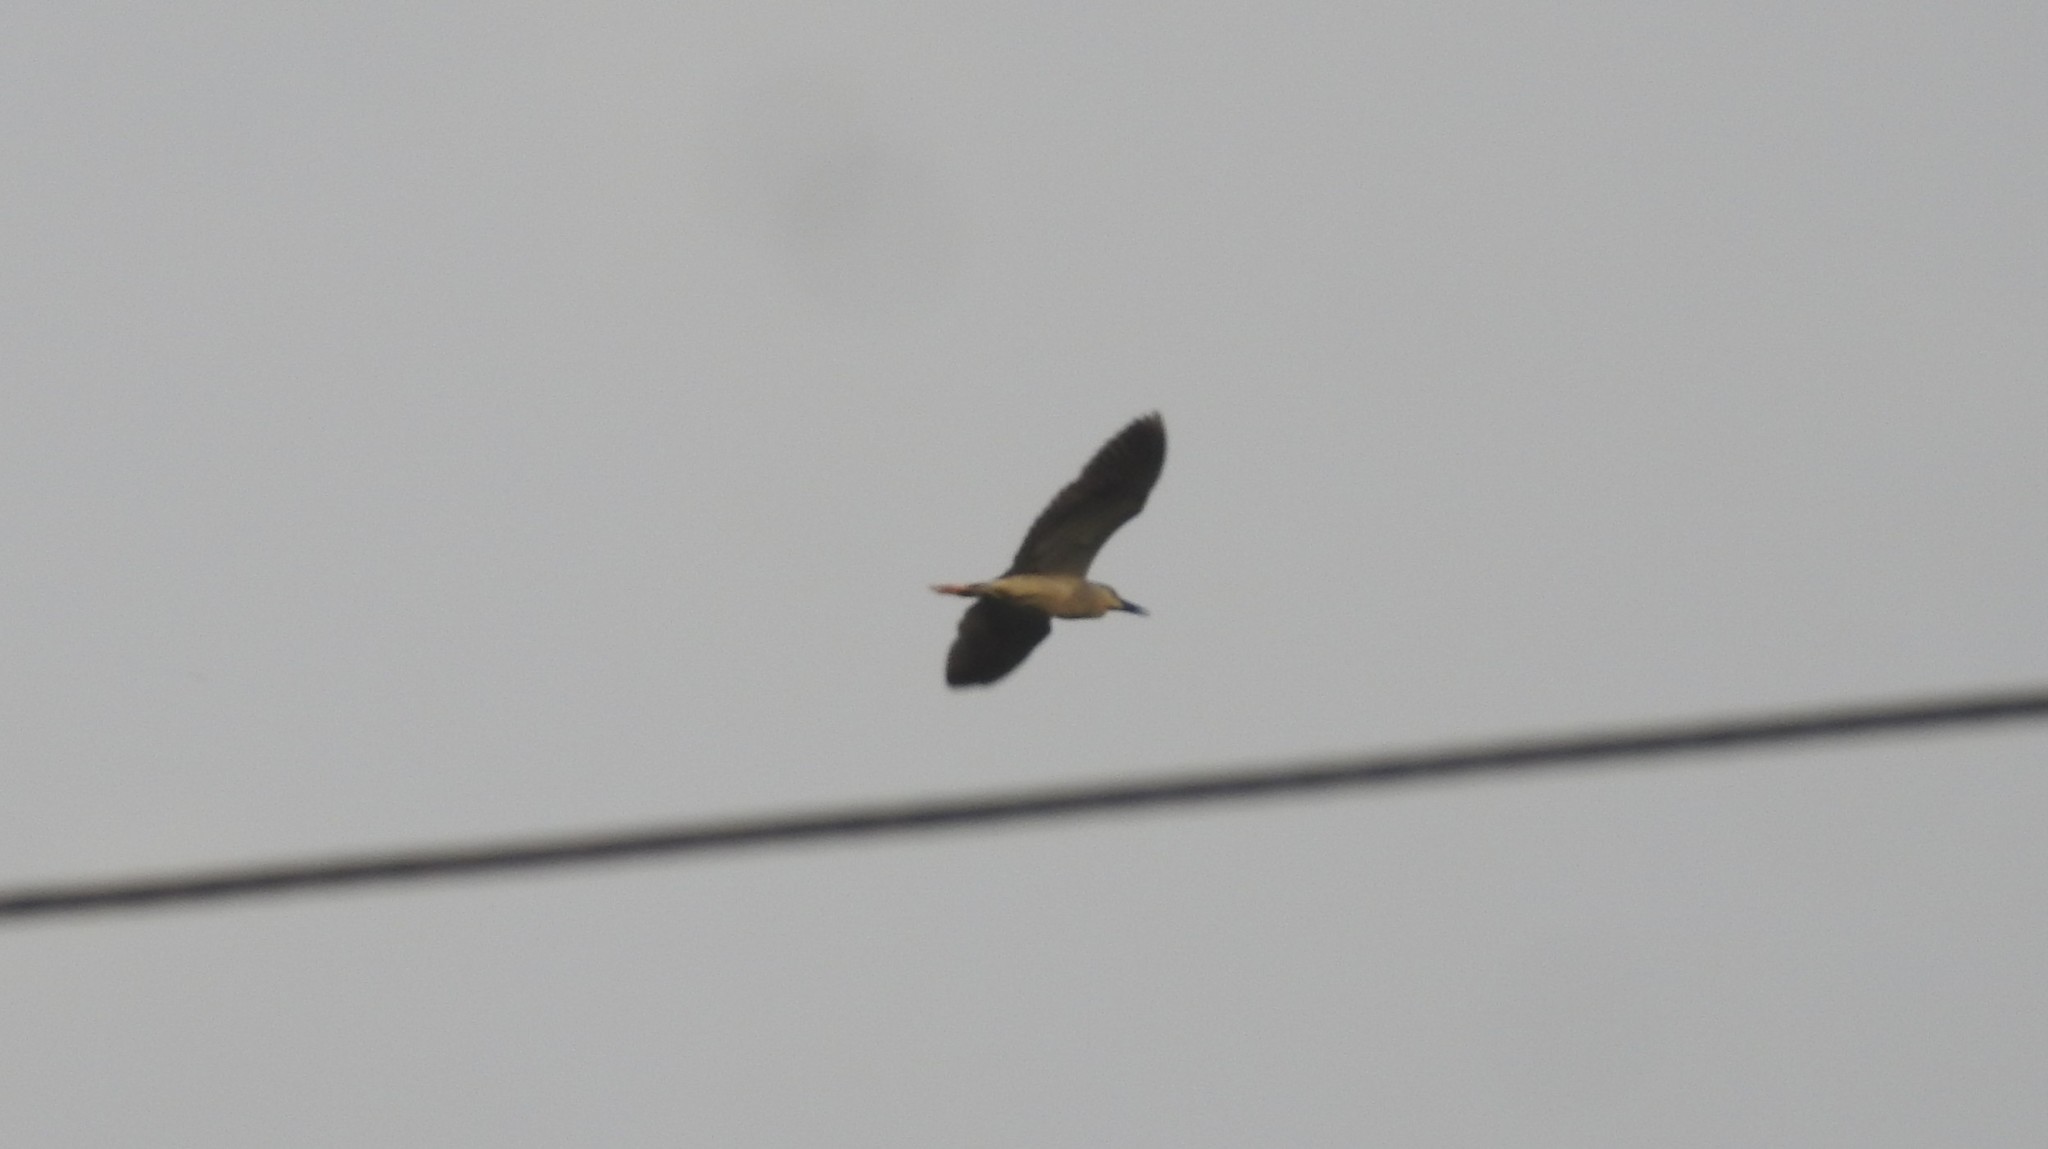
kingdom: Animalia
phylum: Chordata
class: Aves
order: Pelecaniformes
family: Ardeidae
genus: Nycticorax
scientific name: Nycticorax nycticorax
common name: Black-crowned night heron
